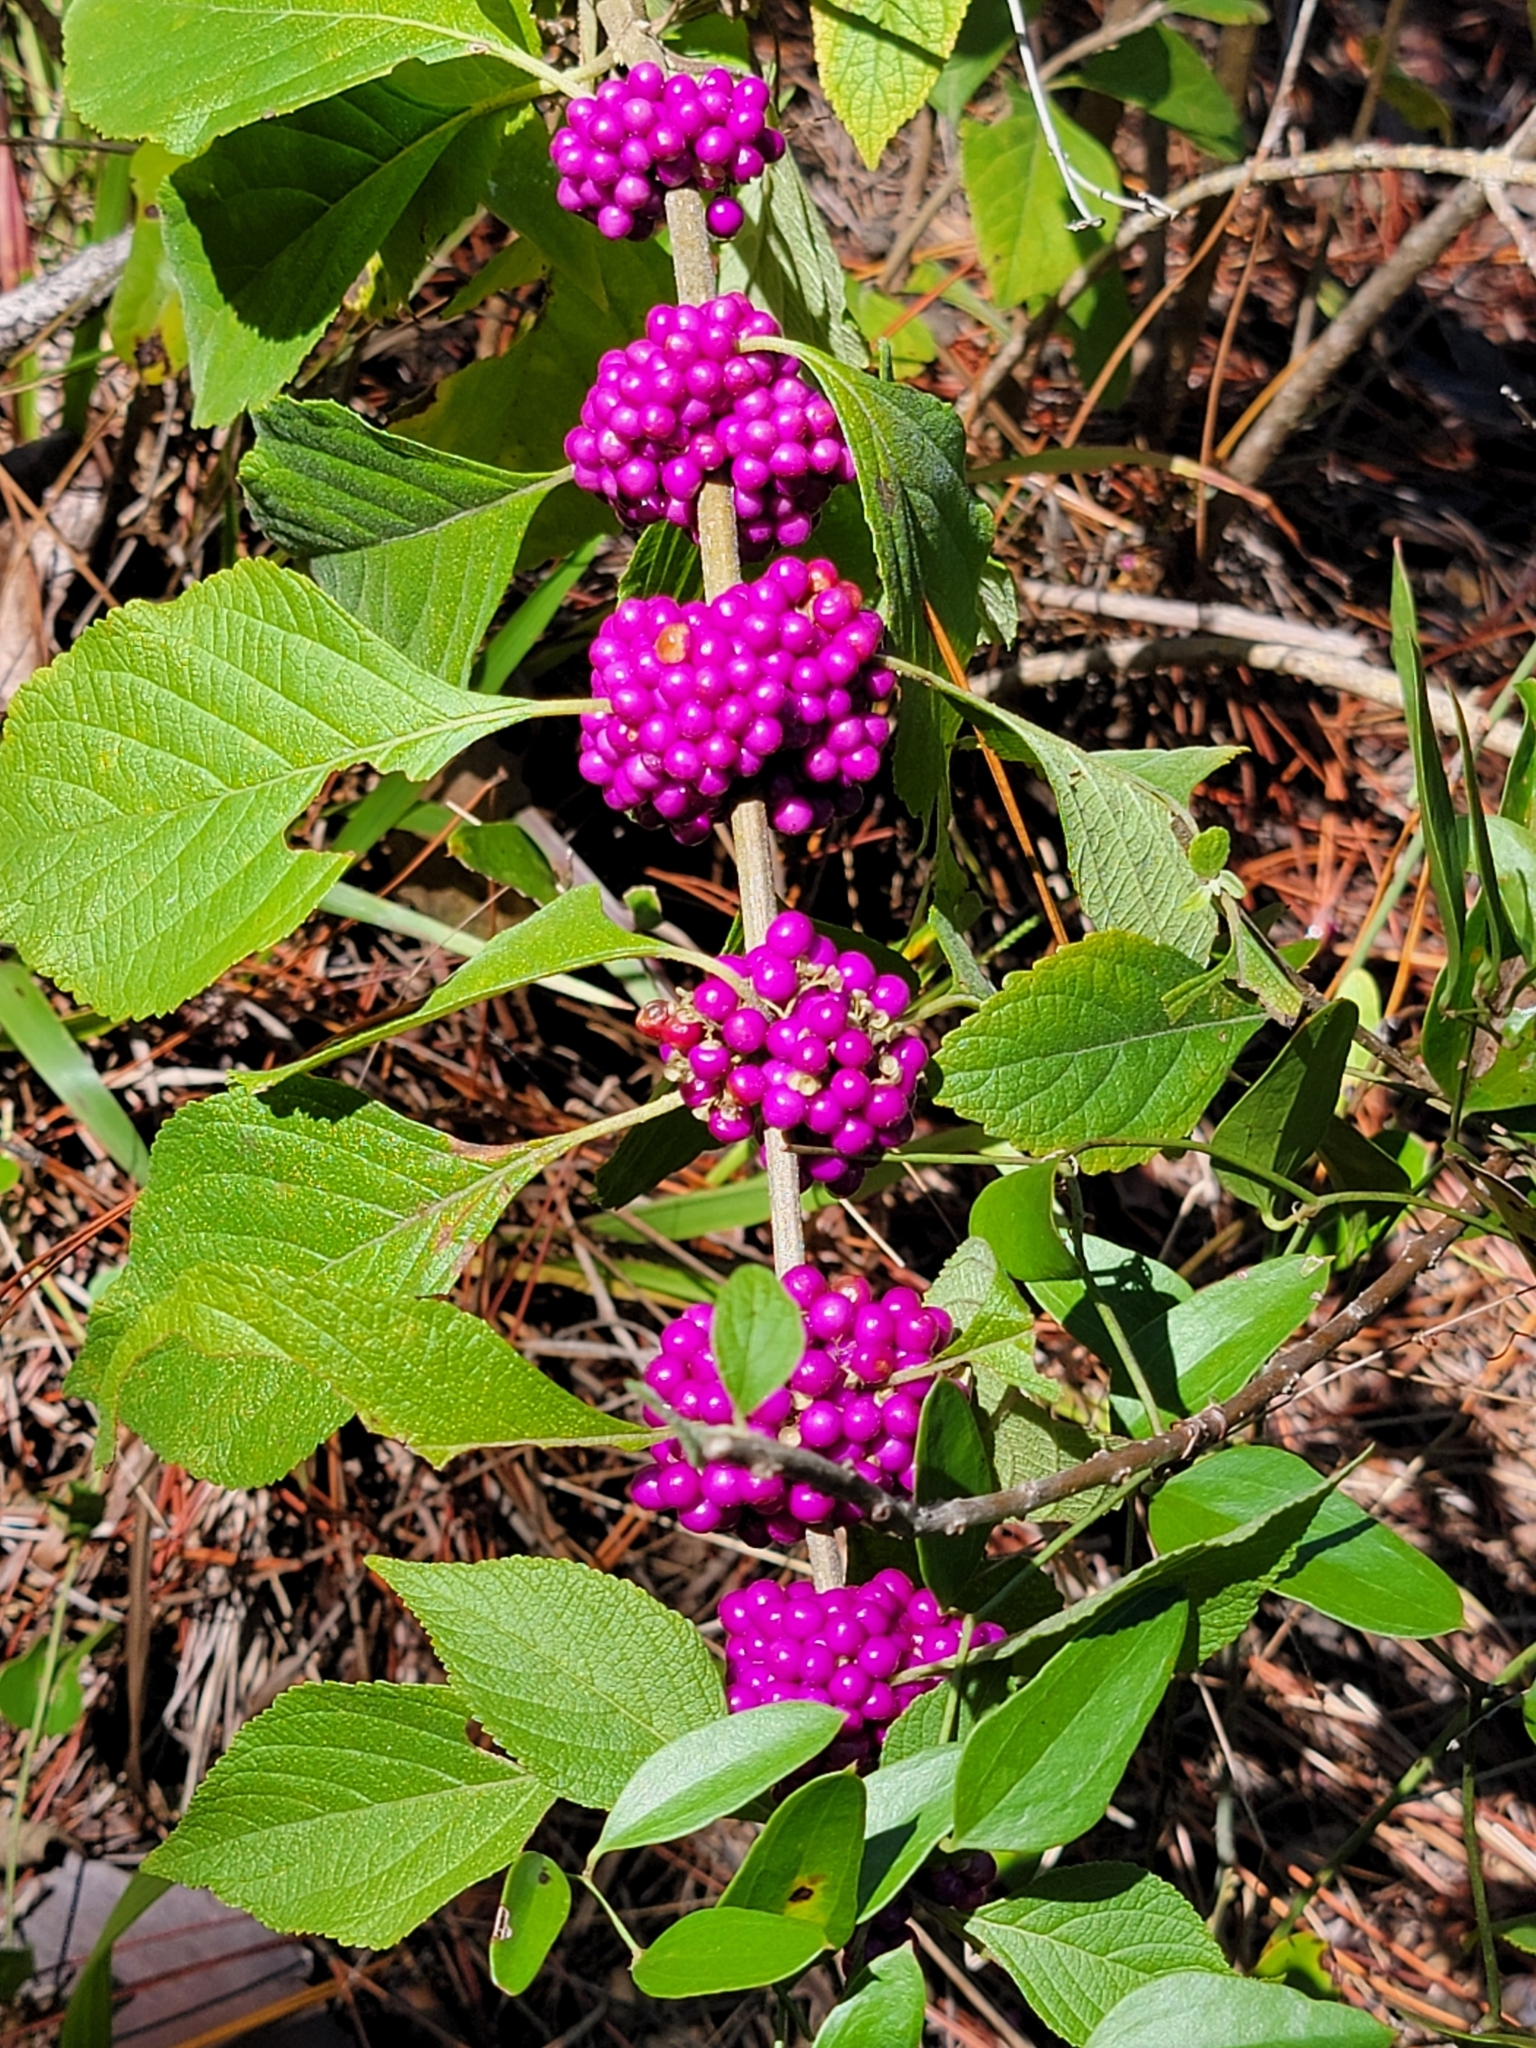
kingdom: Plantae
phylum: Tracheophyta
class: Magnoliopsida
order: Lamiales
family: Lamiaceae
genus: Callicarpa
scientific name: Callicarpa americana
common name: American beautyberry
